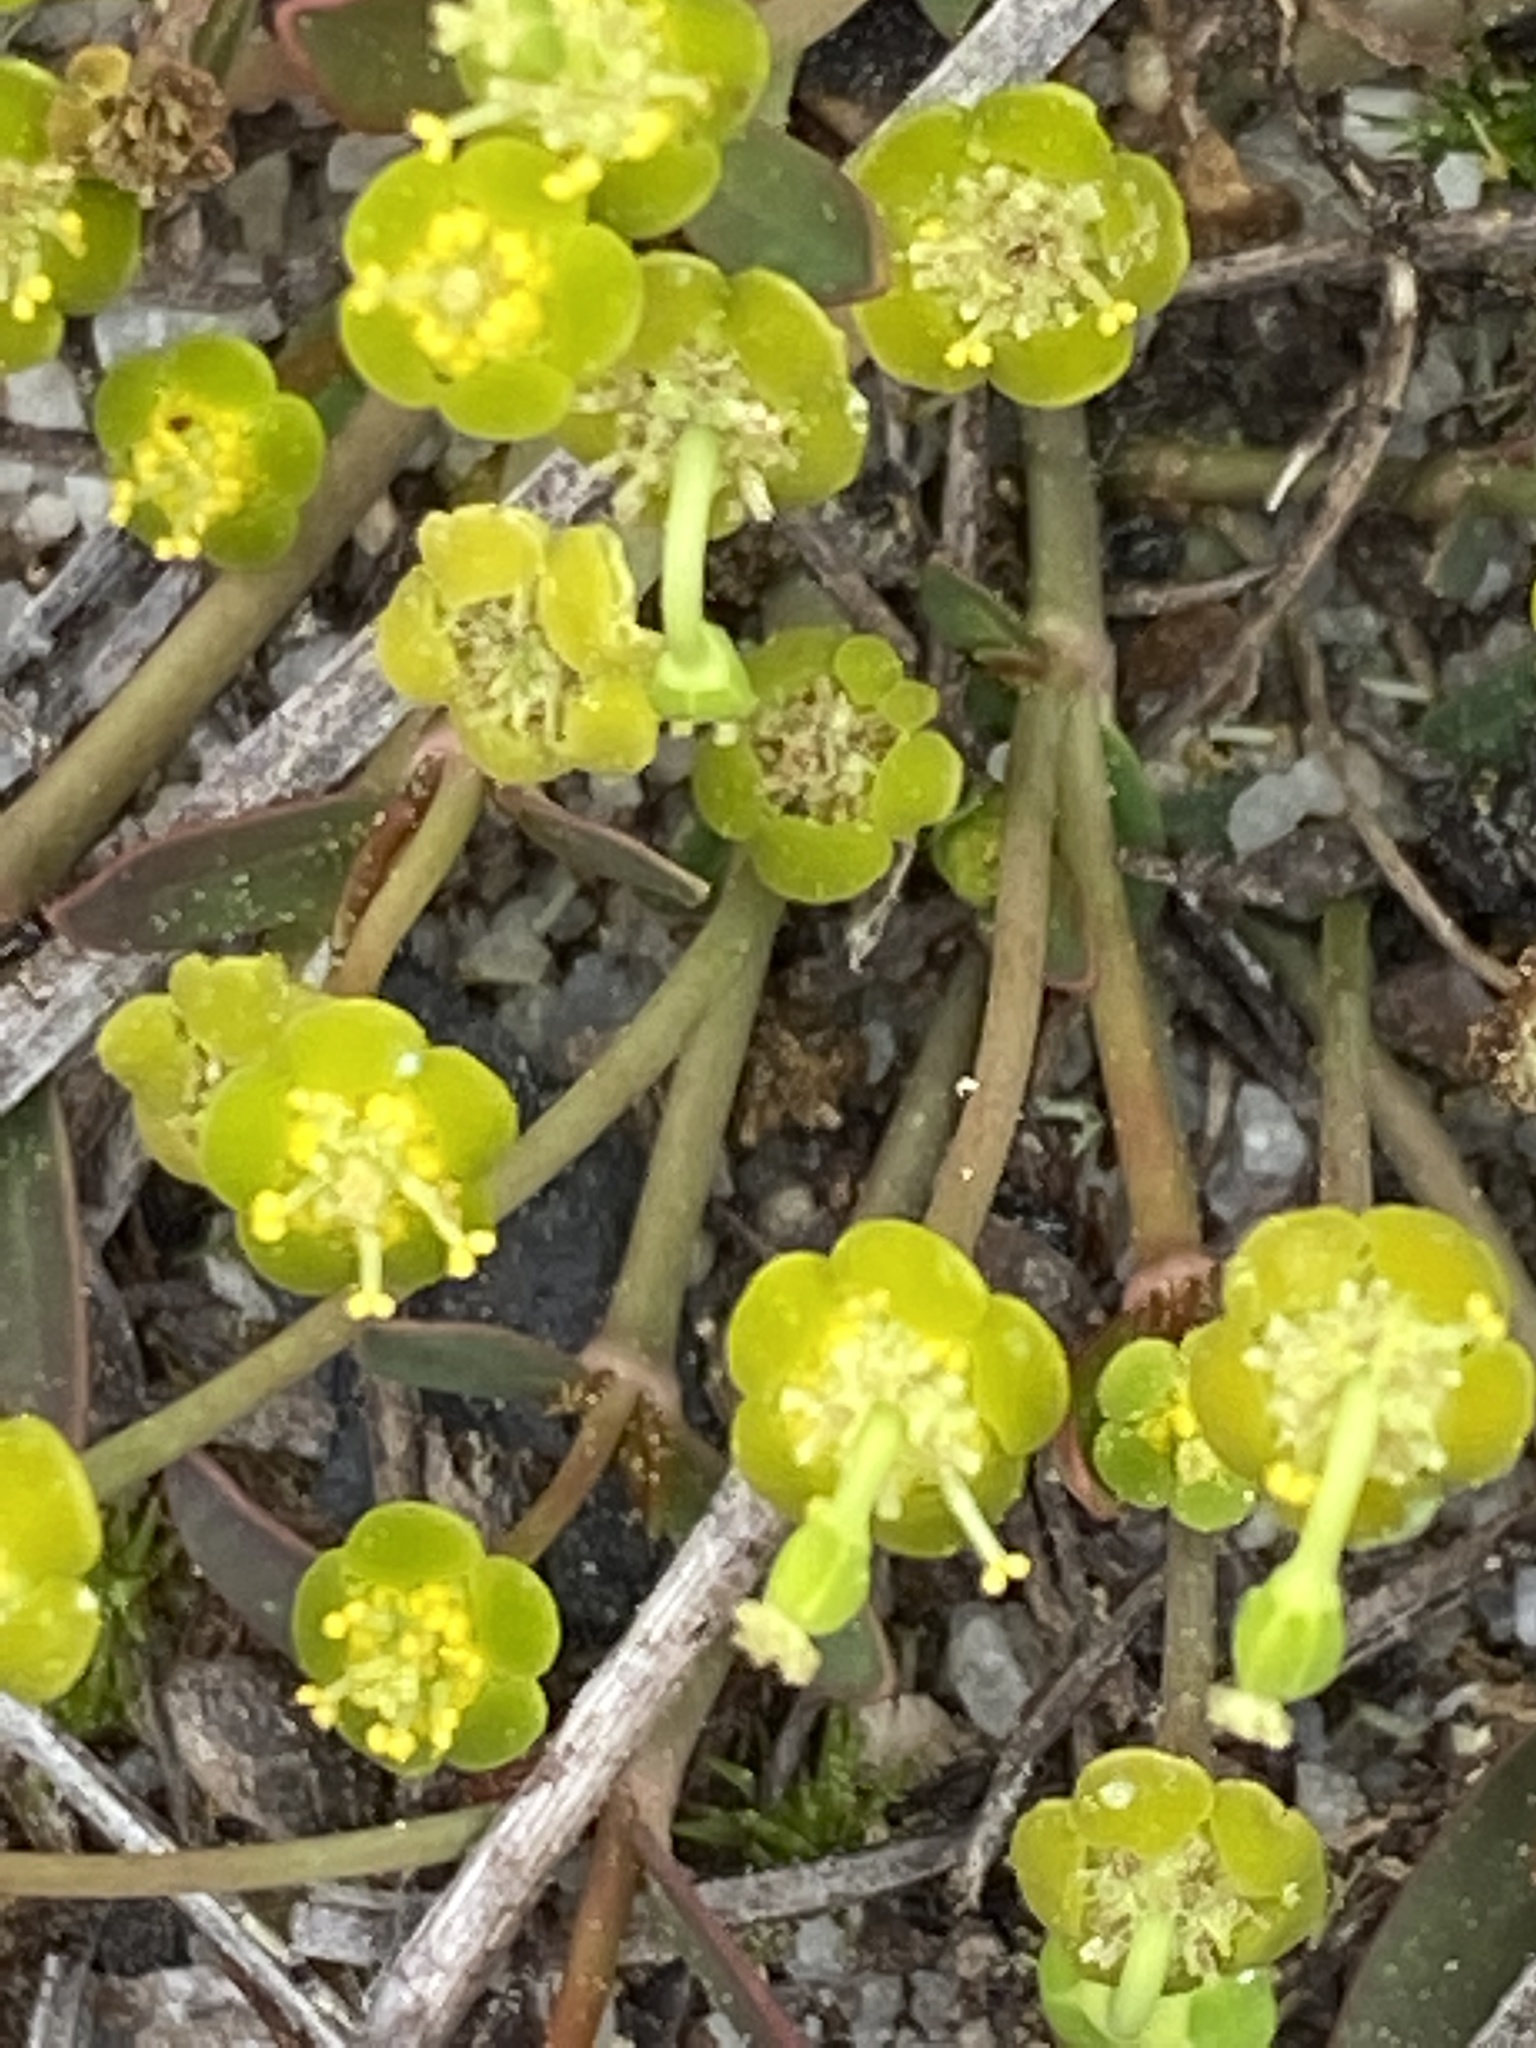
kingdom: Plantae
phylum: Tracheophyta
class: Magnoliopsida
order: Malpighiales
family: Euphorbiaceae
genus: Euphorbia
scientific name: Euphorbia ipecacuanhae
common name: Carolina ipecac
